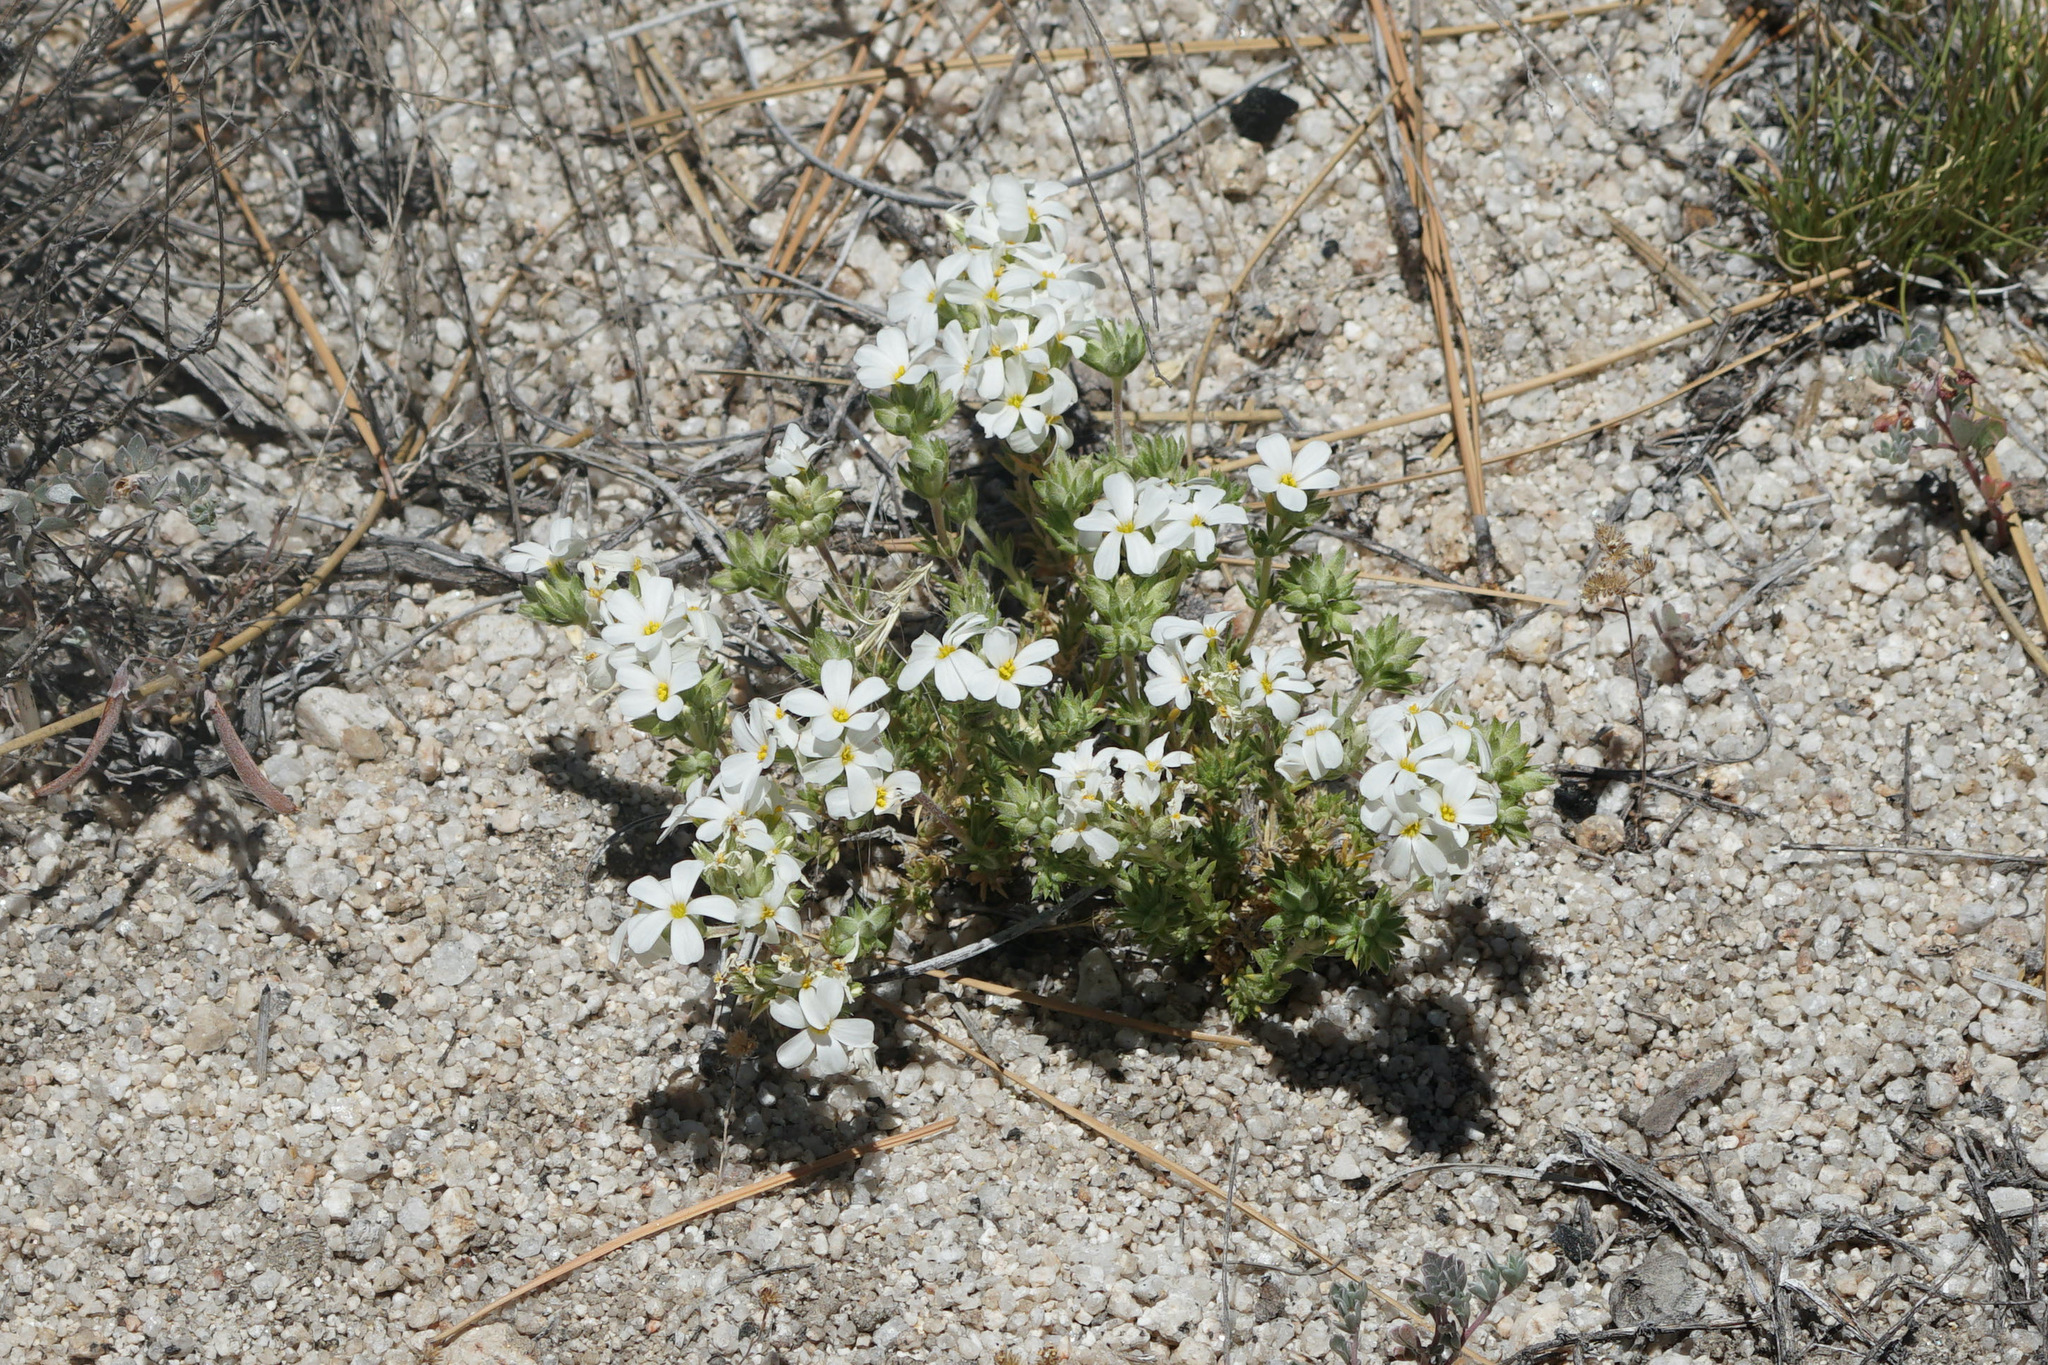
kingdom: Plantae
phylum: Tracheophyta
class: Magnoliopsida
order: Ericales
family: Polemoniaceae
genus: Leptosiphon
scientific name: Leptosiphon melingii
